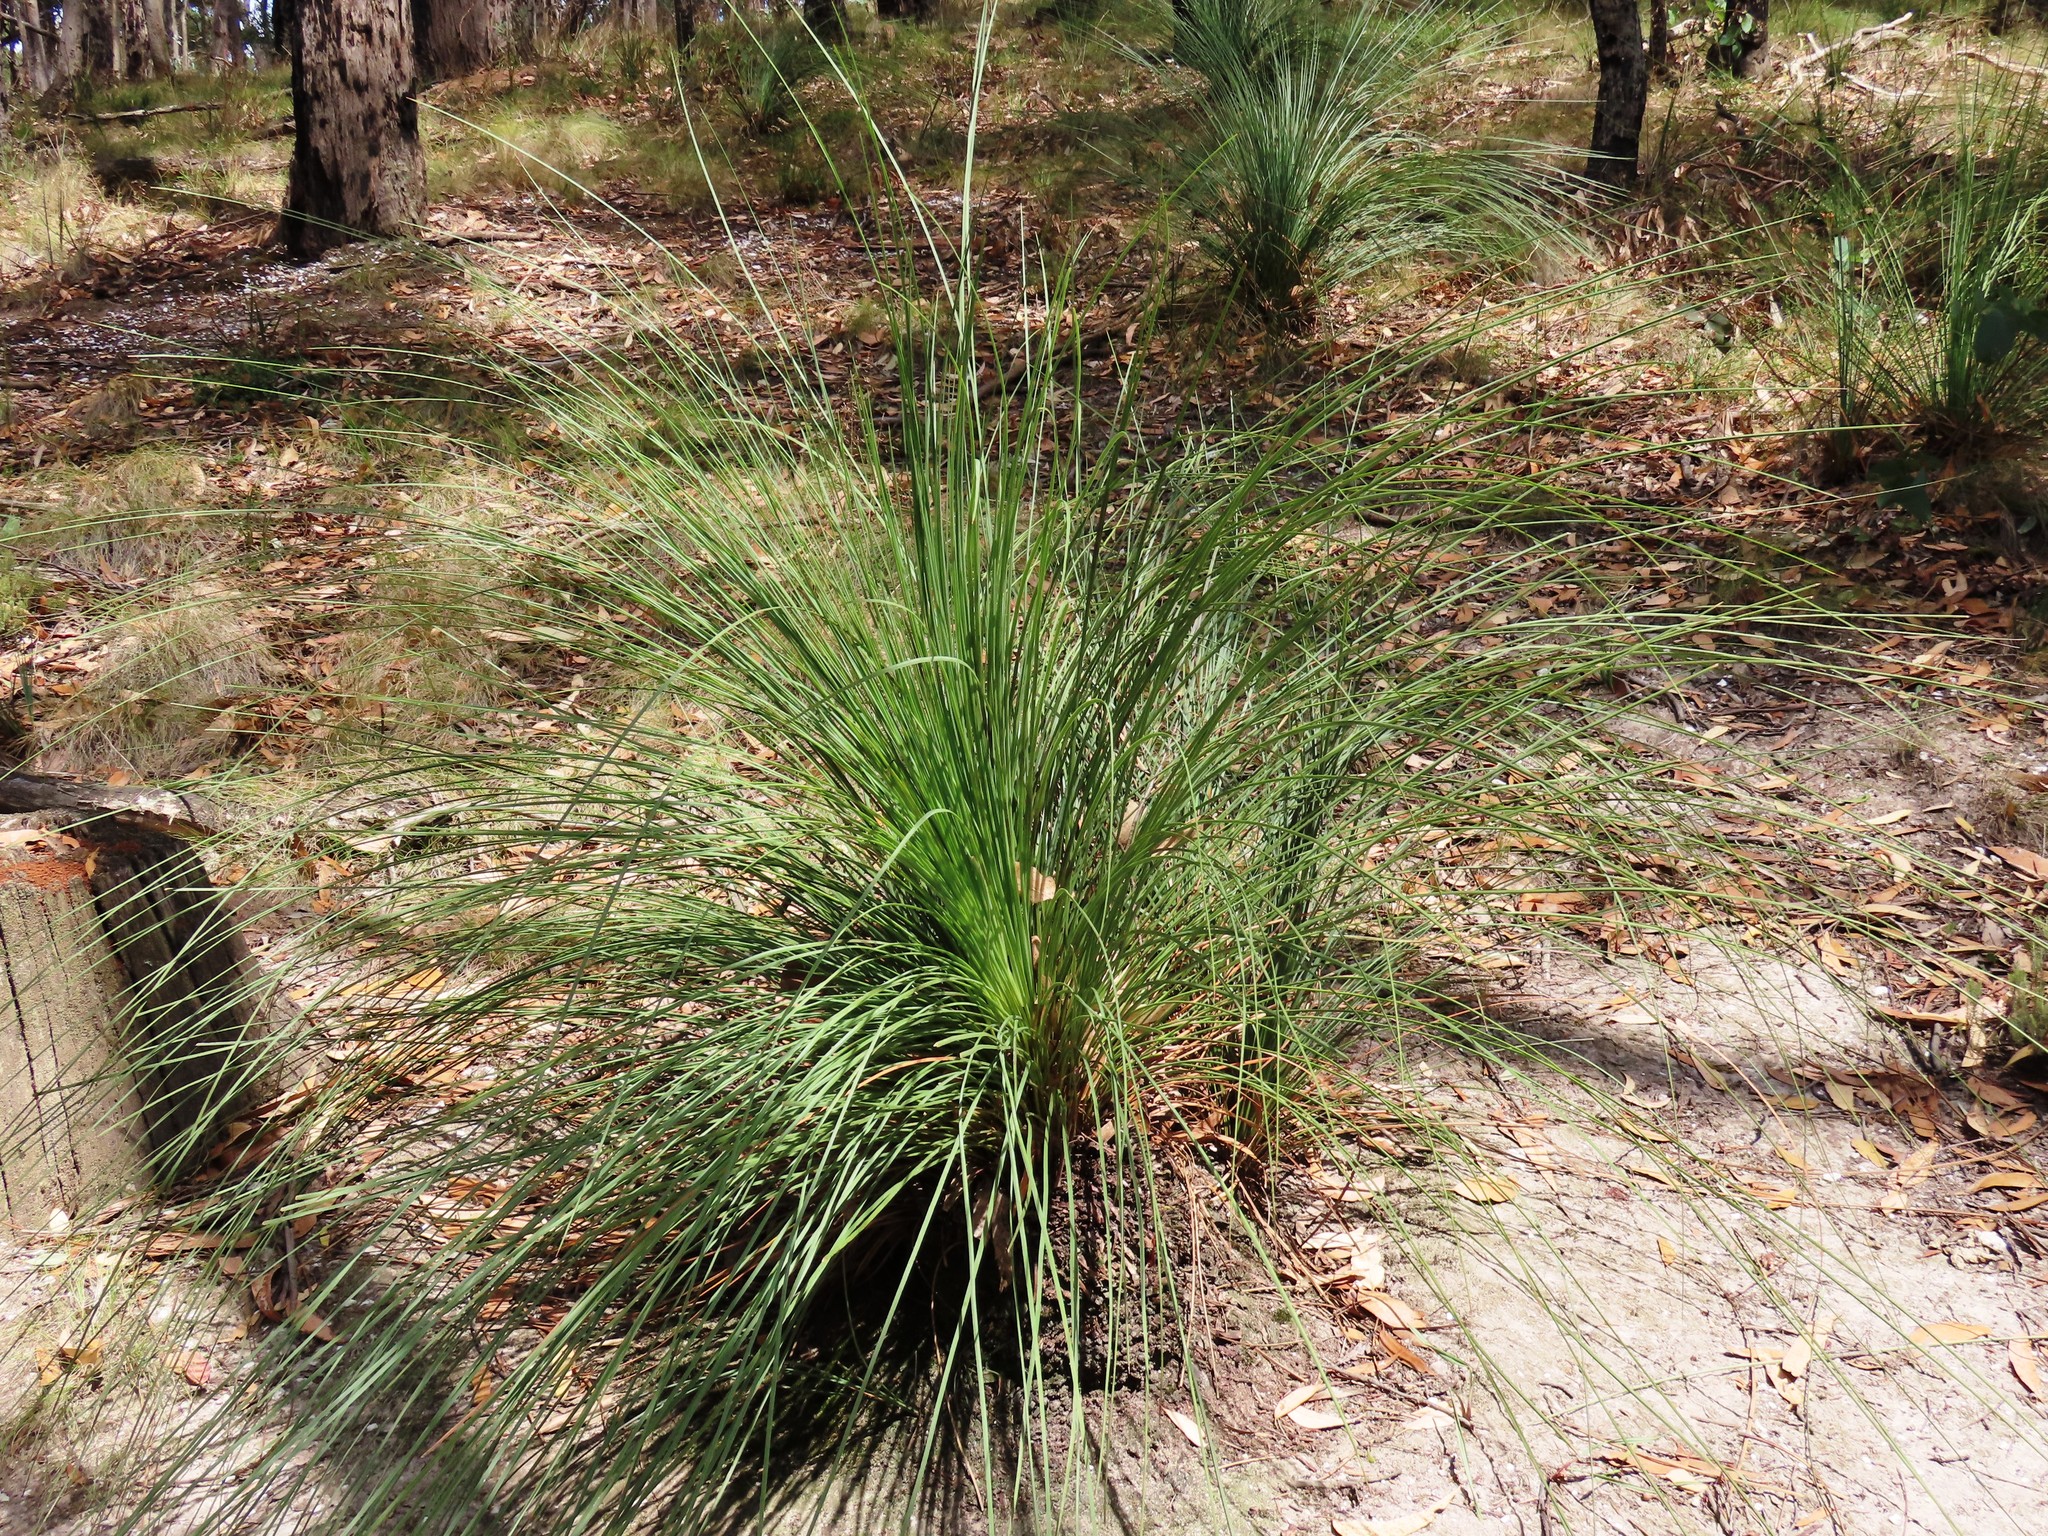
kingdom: Plantae
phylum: Tracheophyta
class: Liliopsida
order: Asparagales
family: Asphodelaceae
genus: Xanthorrhoea
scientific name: Xanthorrhoea australis
